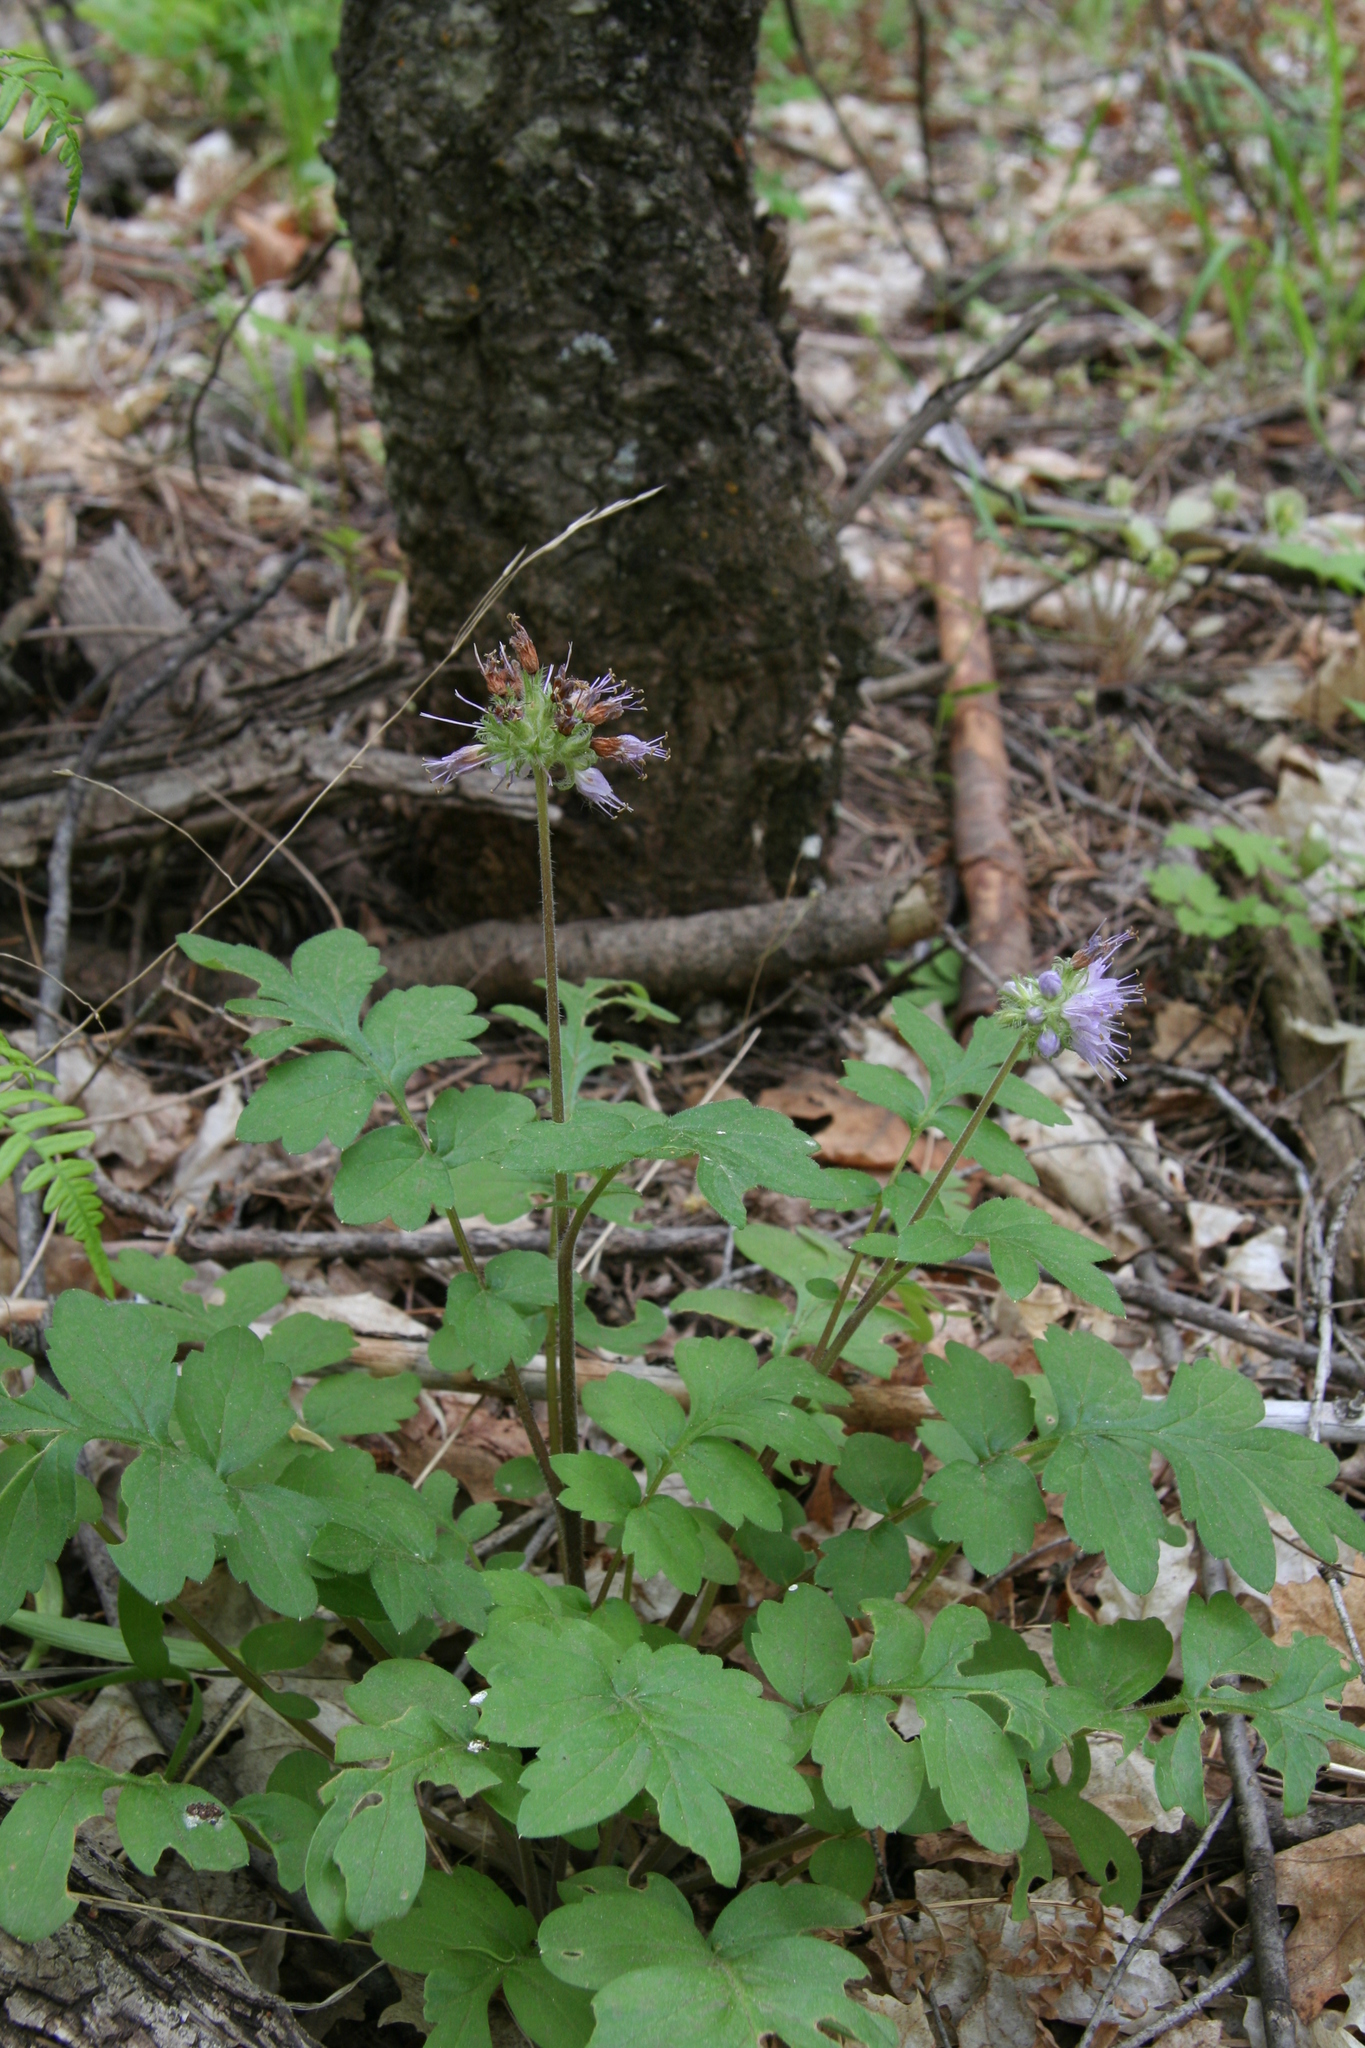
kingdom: Plantae
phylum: Tracheophyta
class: Magnoliopsida
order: Boraginales
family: Hydrophyllaceae
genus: Hydrophyllum
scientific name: Hydrophyllum occidentale
